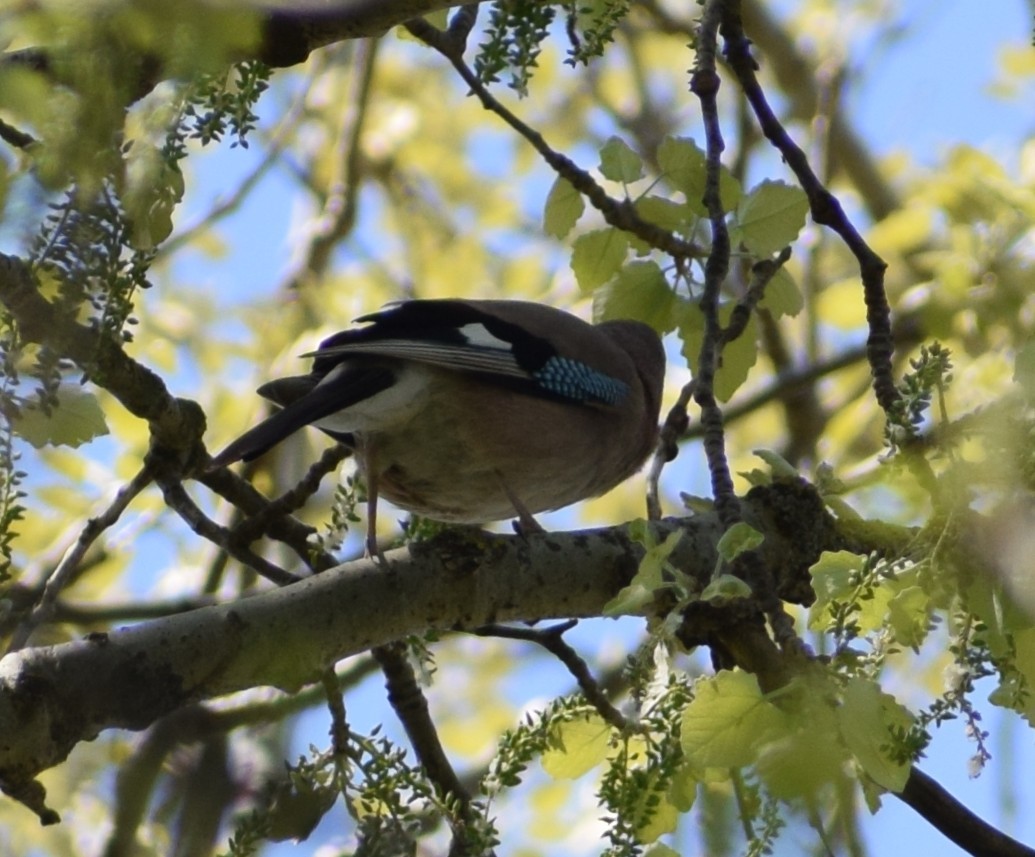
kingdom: Animalia
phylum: Chordata
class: Aves
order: Passeriformes
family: Corvidae
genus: Garrulus
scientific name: Garrulus glandarius
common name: Eurasian jay
